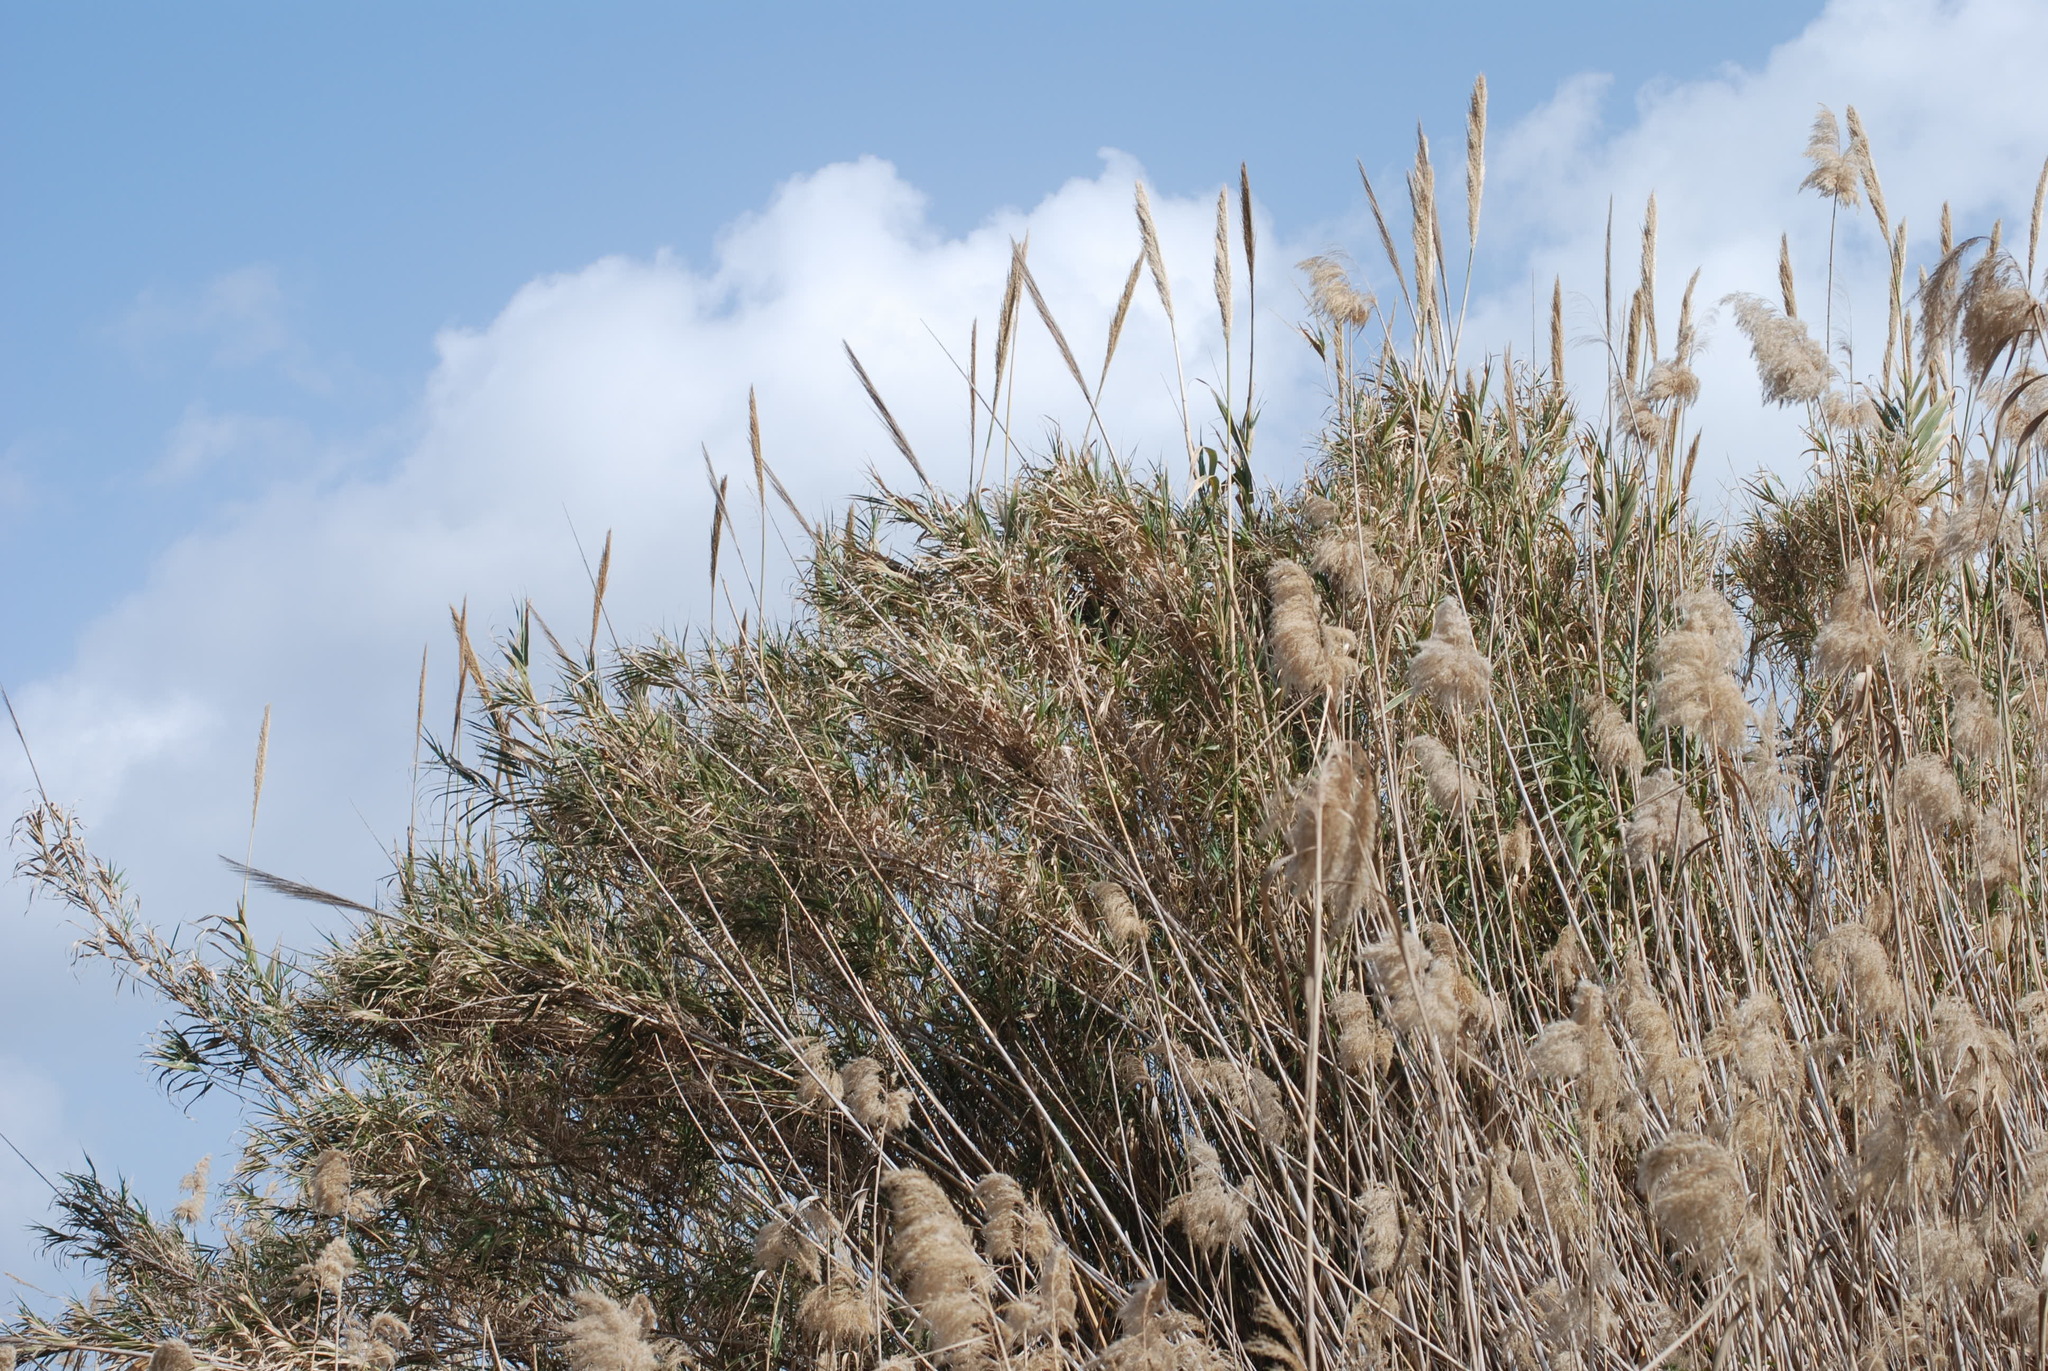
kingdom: Plantae
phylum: Tracheophyta
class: Liliopsida
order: Poales
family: Poaceae
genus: Arundo
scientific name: Arundo donax
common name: Giant reed
